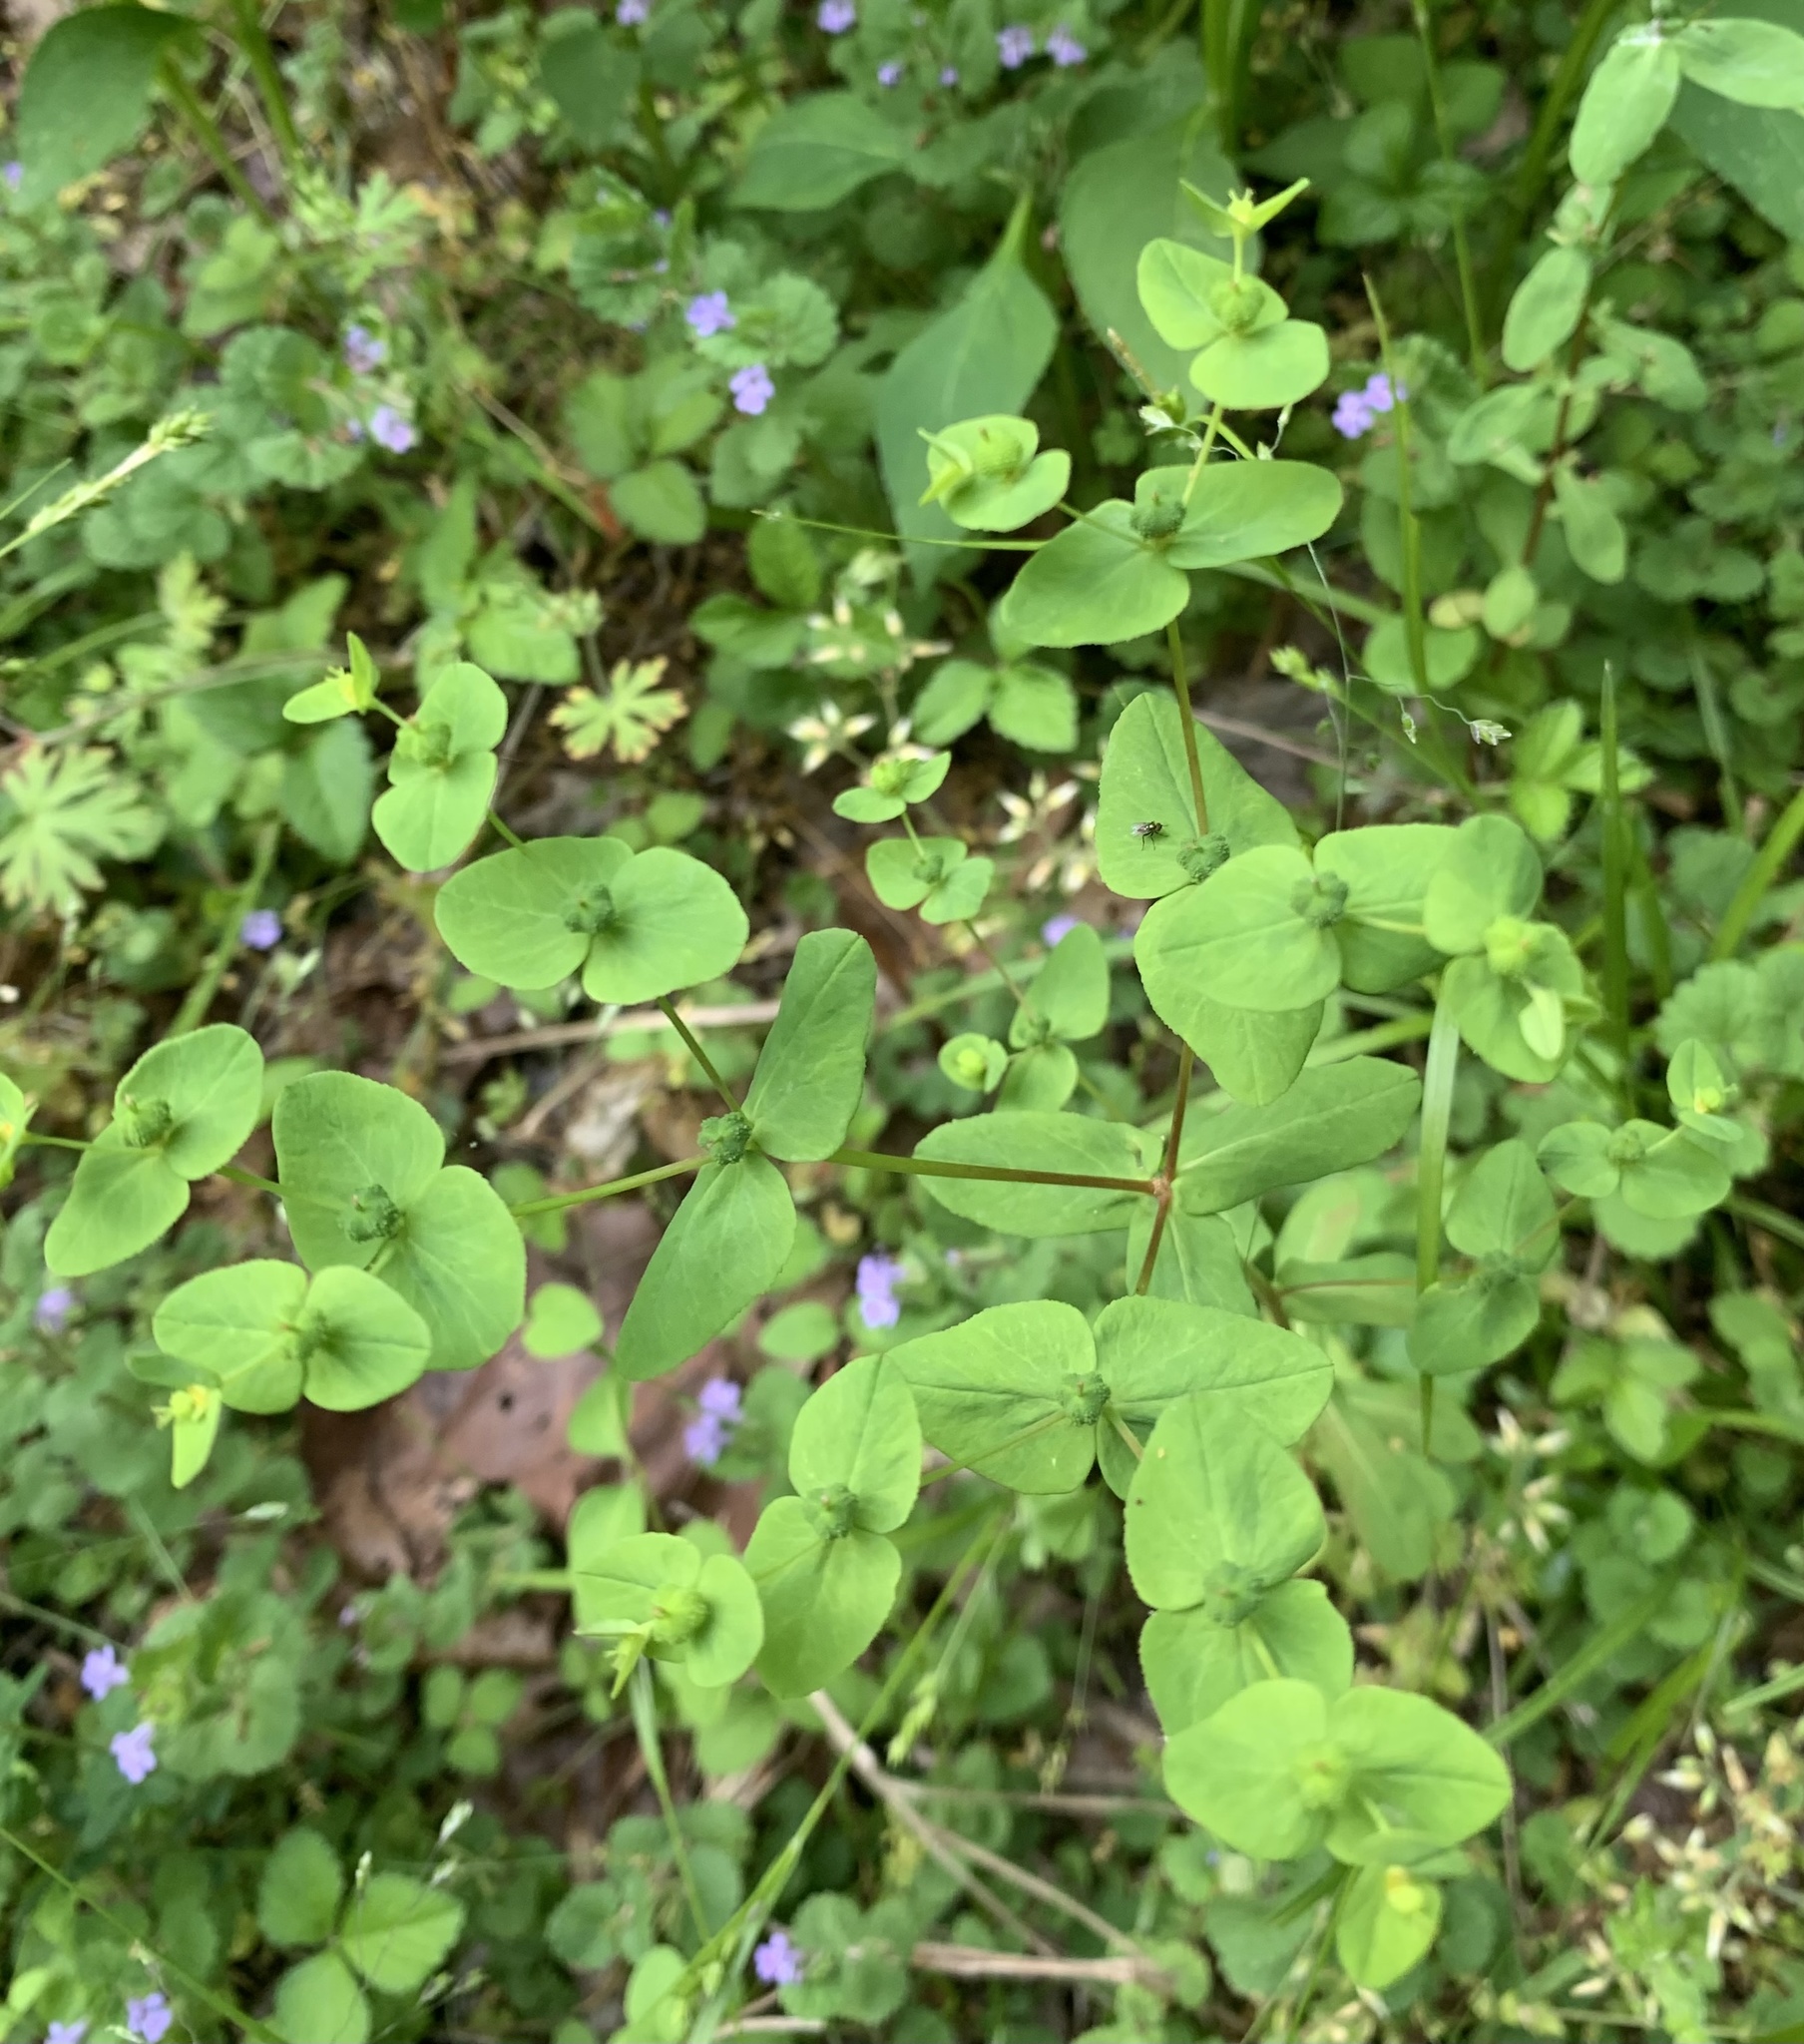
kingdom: Plantae
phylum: Tracheophyta
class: Magnoliopsida
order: Malpighiales
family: Euphorbiaceae
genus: Euphorbia
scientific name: Euphorbia spathulata
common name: Blunt spurge
